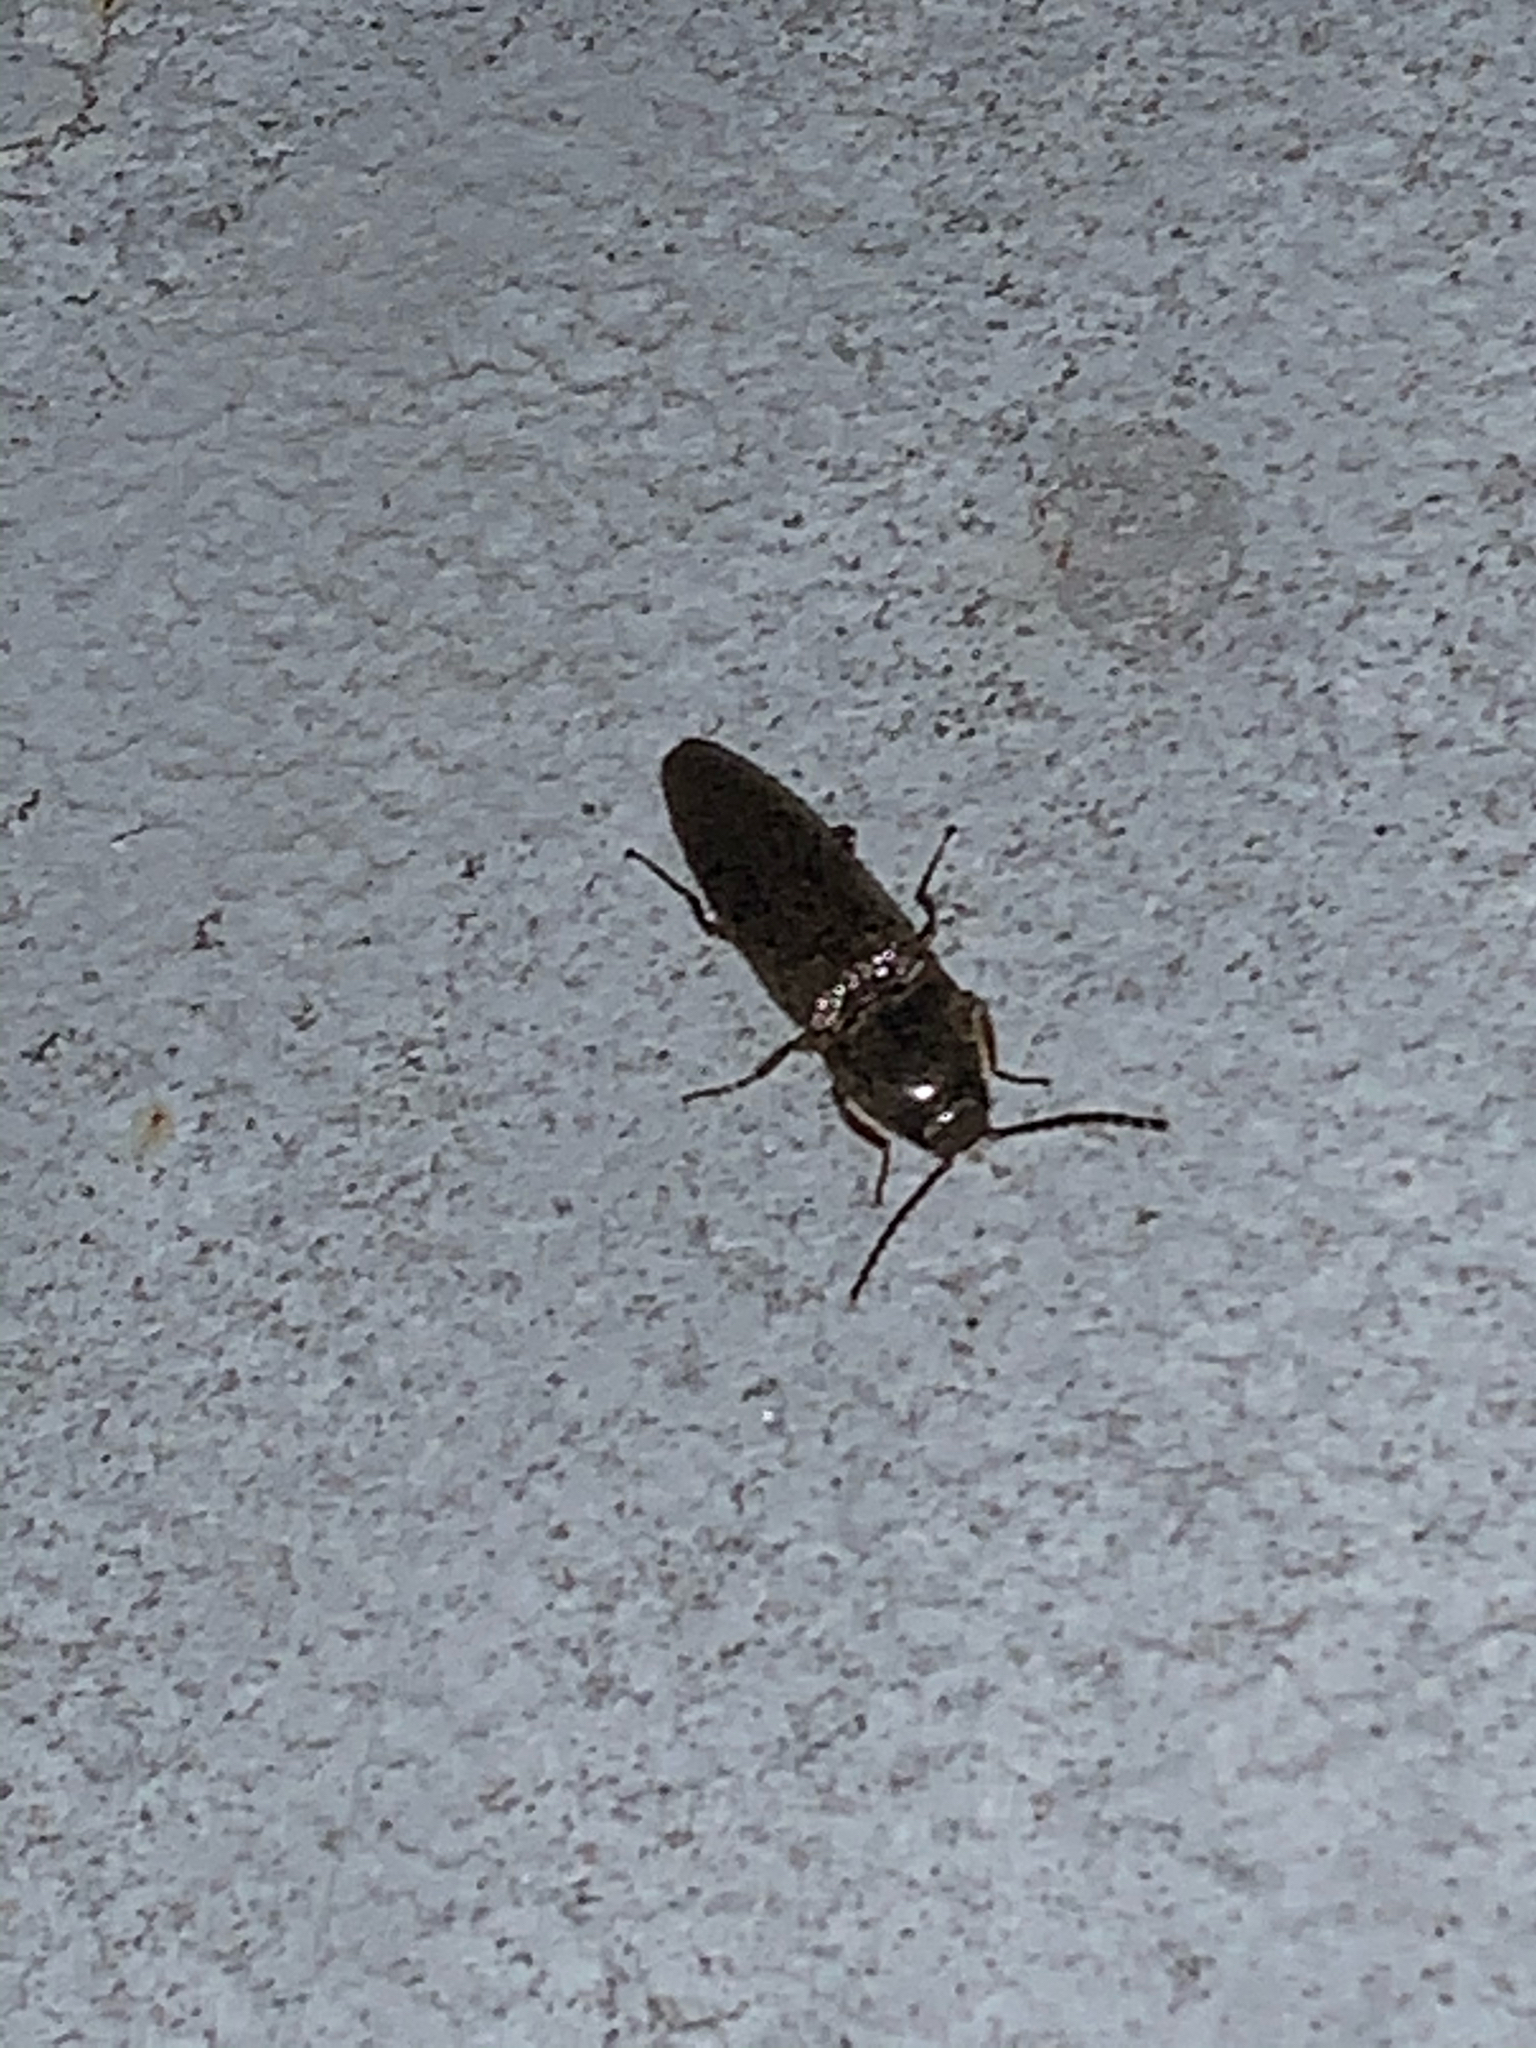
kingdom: Animalia
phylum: Arthropoda
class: Insecta
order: Coleoptera
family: Elateridae
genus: Melanotus
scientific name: Melanotus
